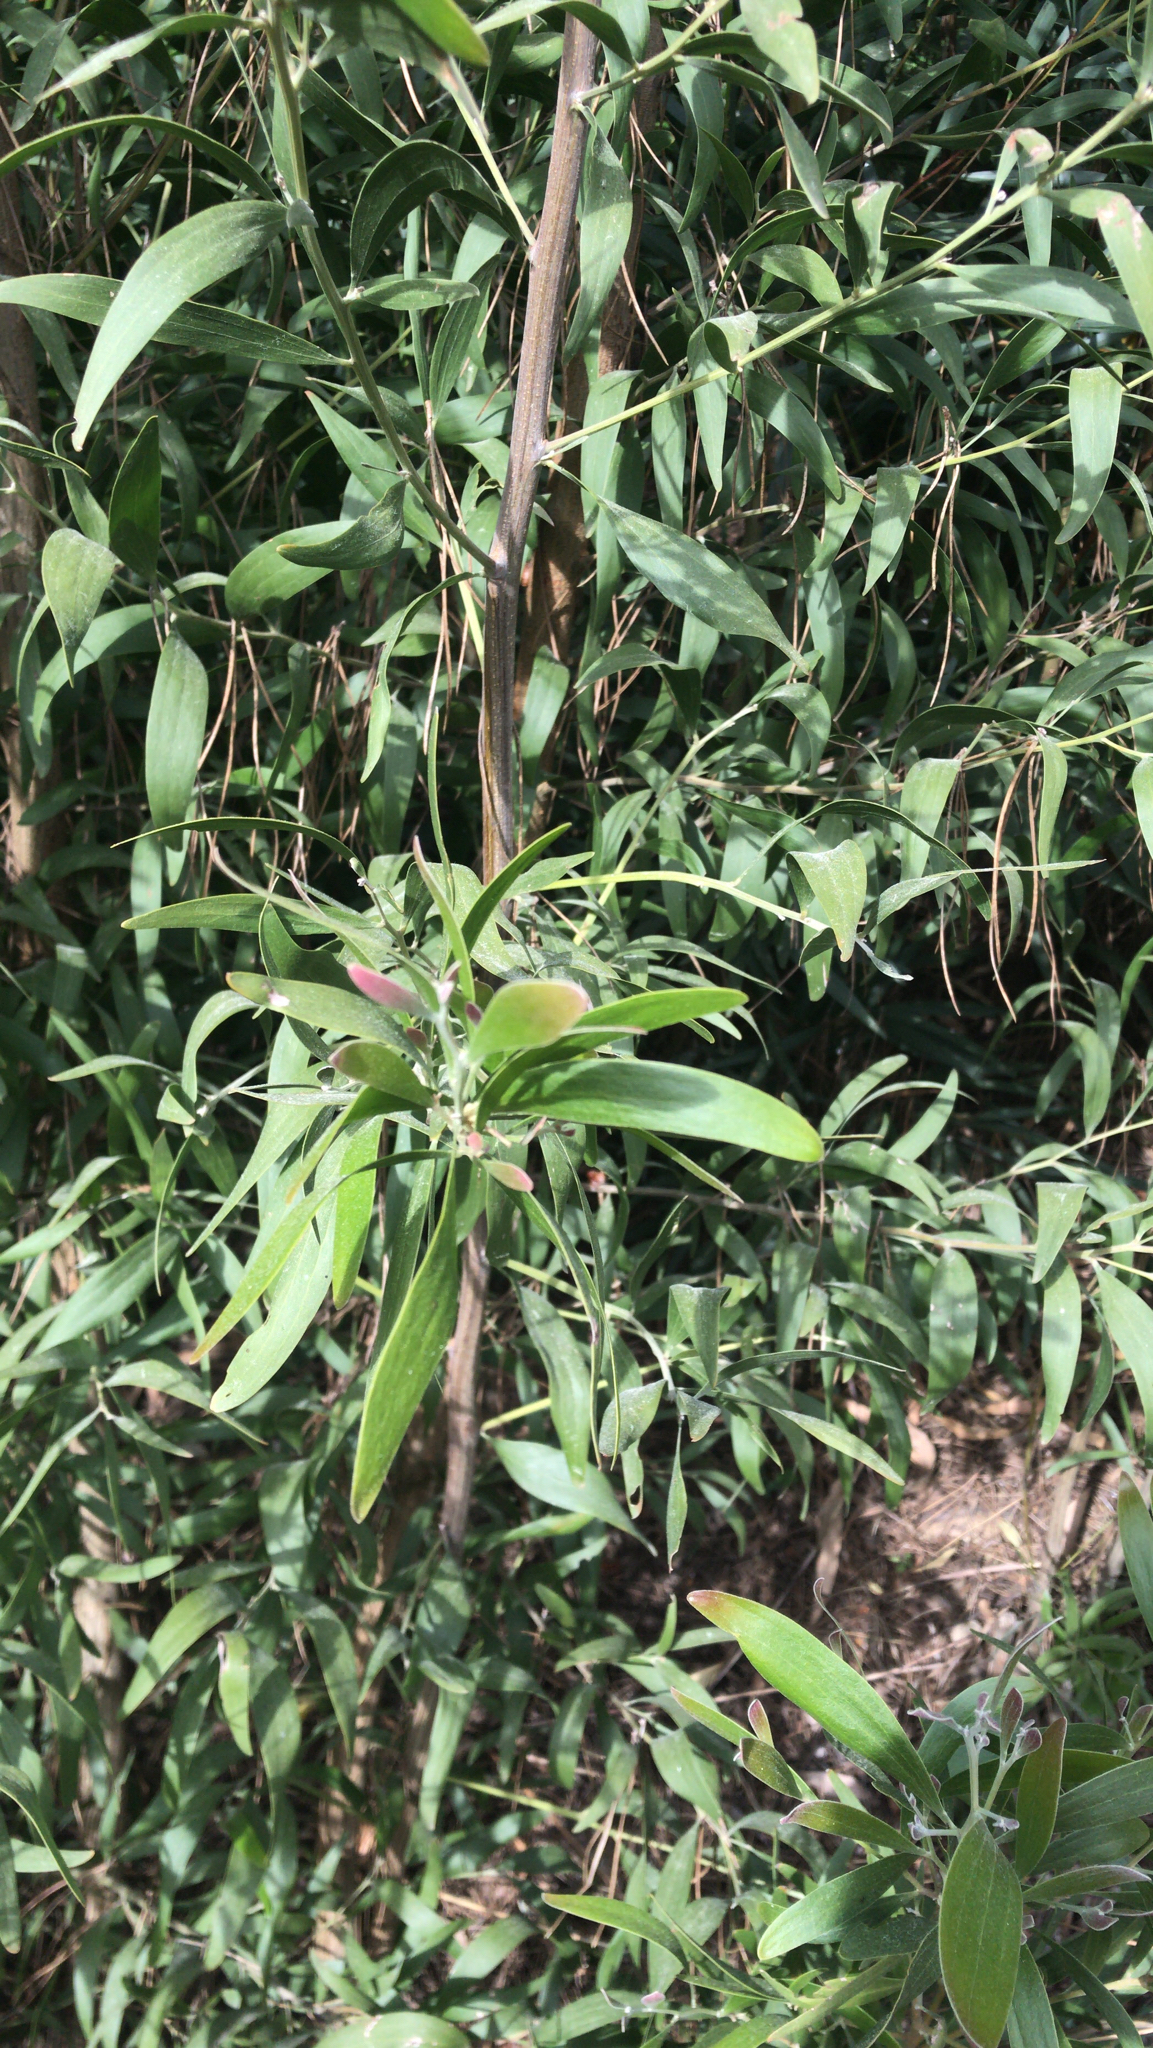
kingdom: Plantae
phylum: Tracheophyta
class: Magnoliopsida
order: Fabales
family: Fabaceae
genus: Acacia
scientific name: Acacia melanoxylon
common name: Blackwood
